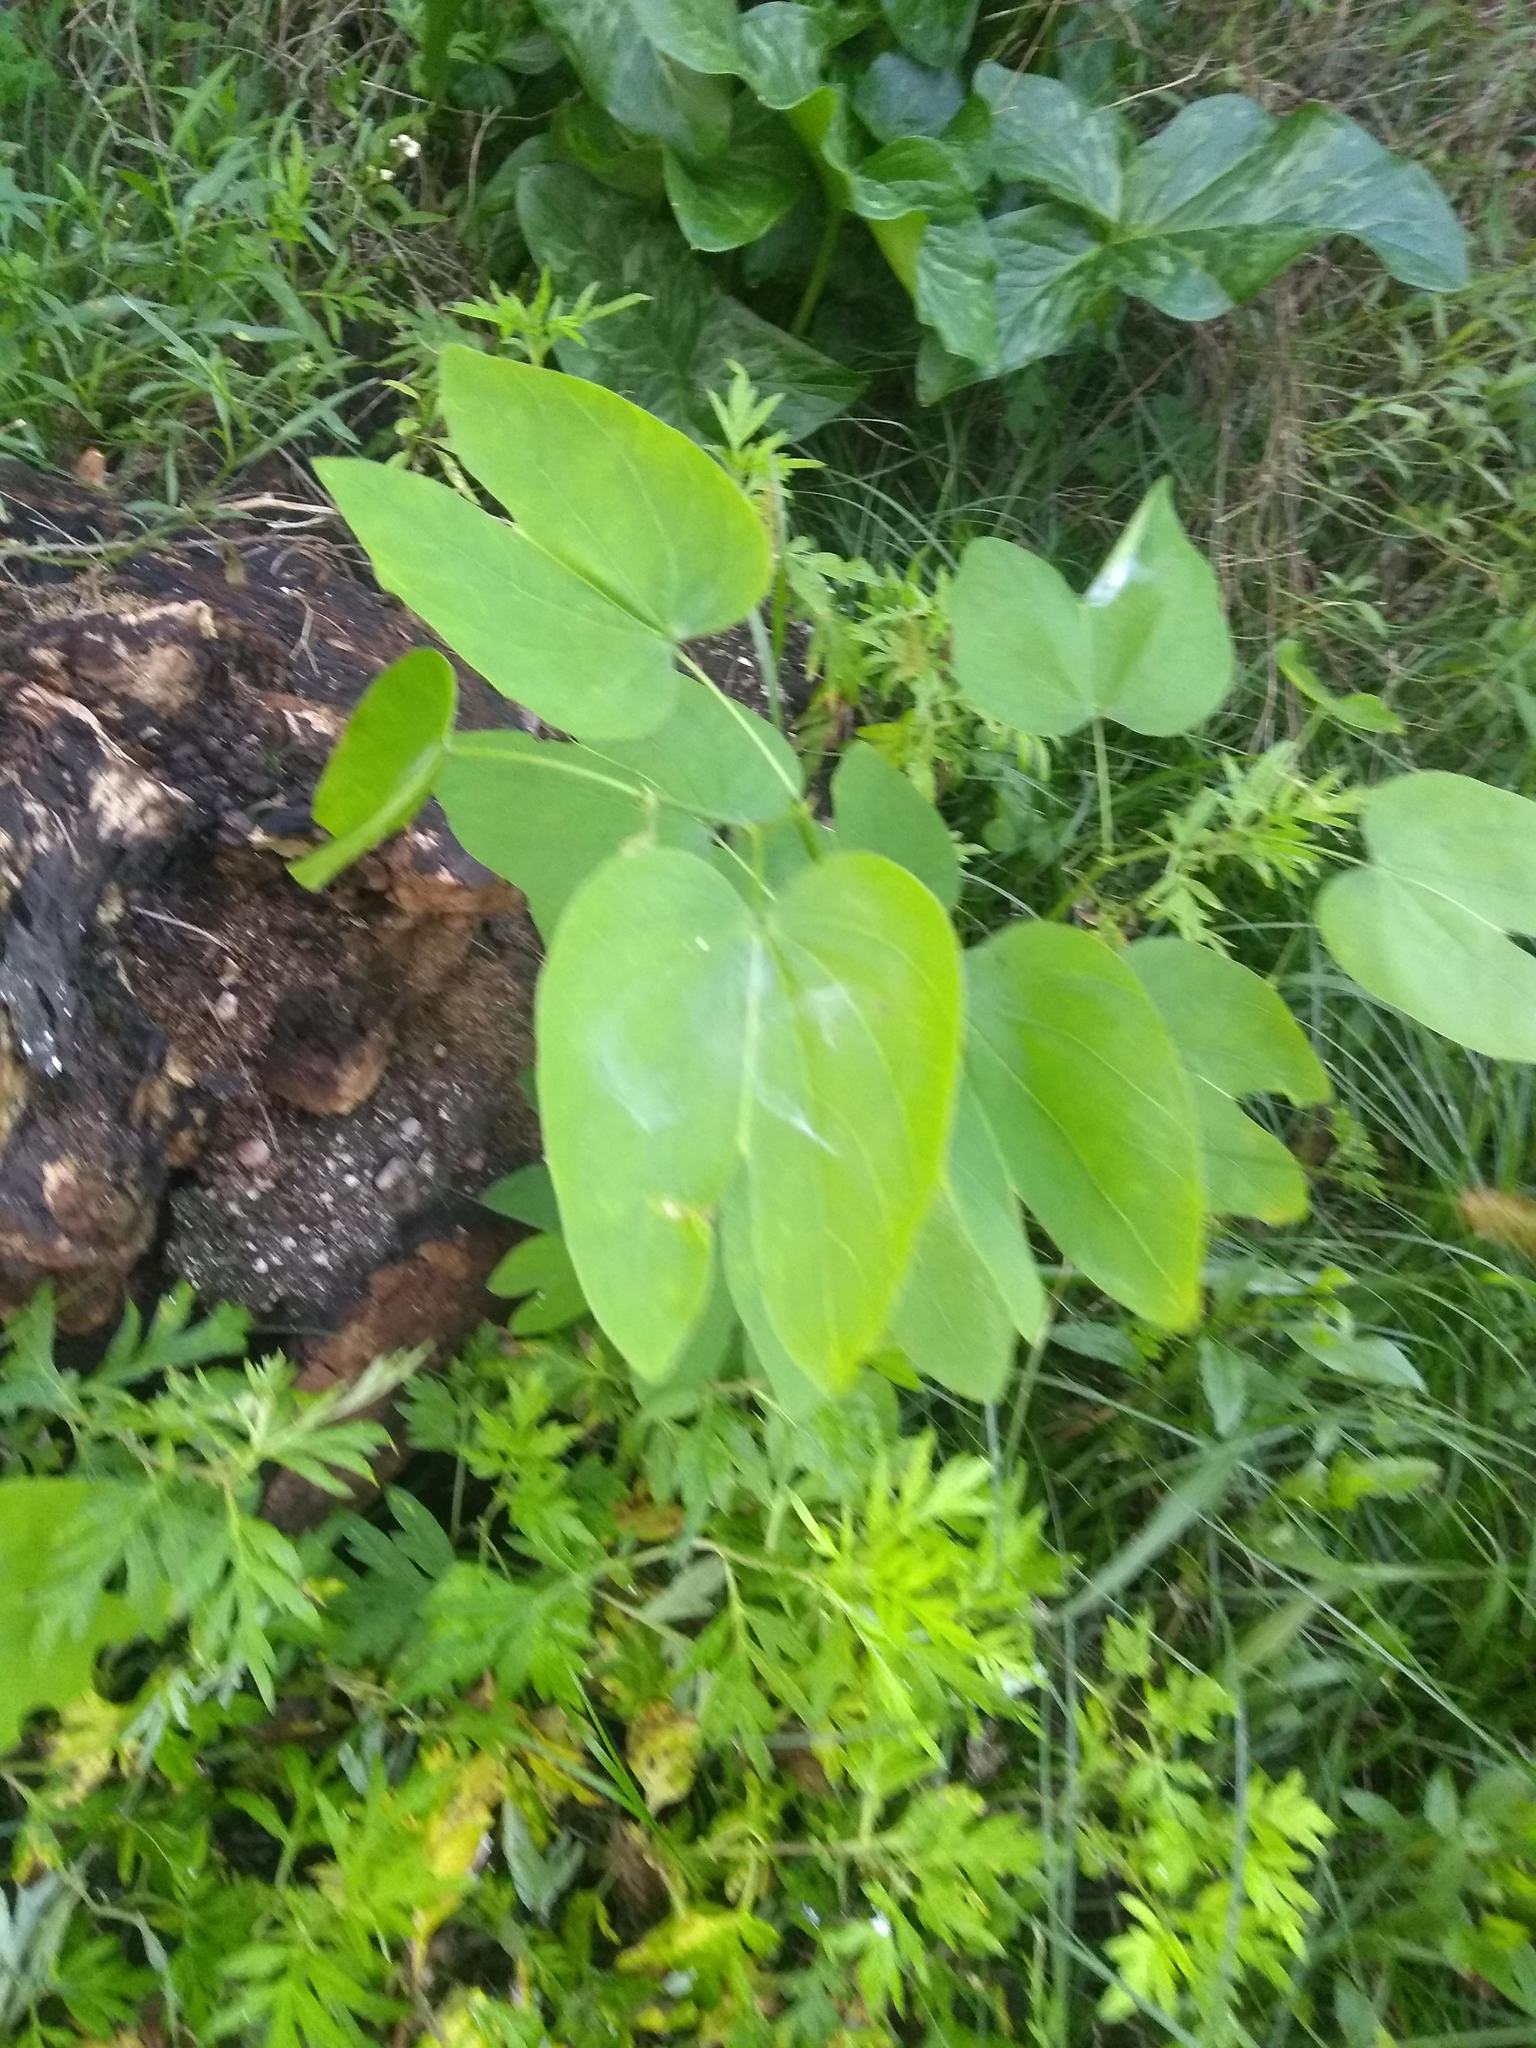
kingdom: Plantae
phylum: Tracheophyta
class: Magnoliopsida
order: Fabales
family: Fabaceae
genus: Bauhinia
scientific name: Bauhinia forficata
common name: Orchid tree
